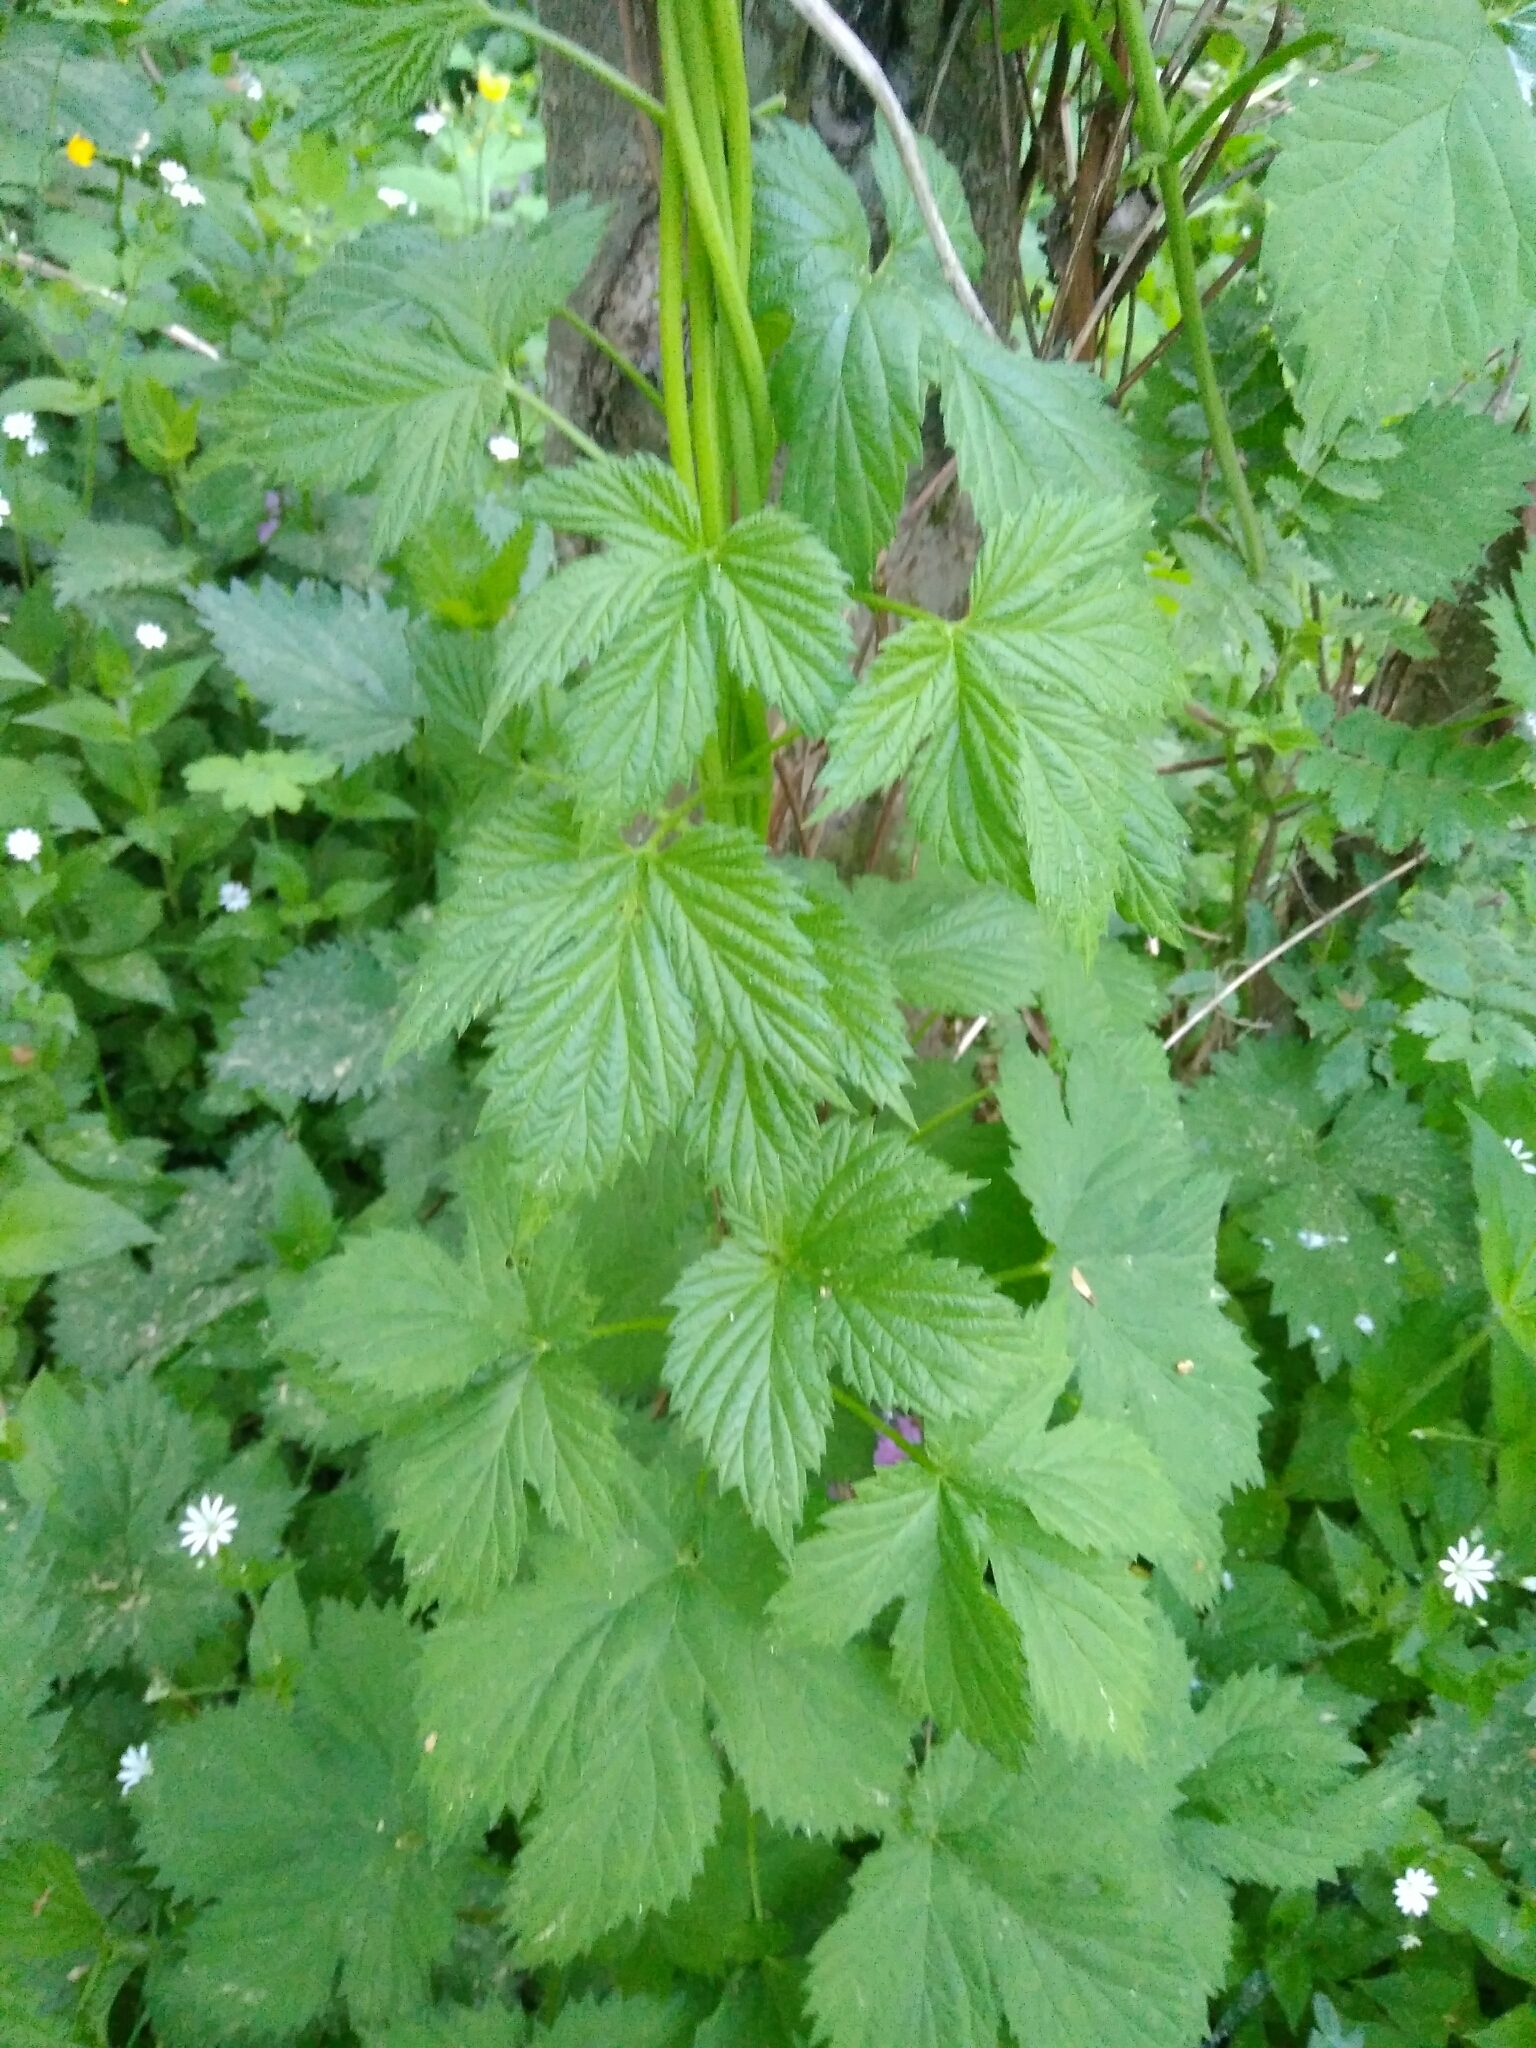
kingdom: Plantae
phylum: Tracheophyta
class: Magnoliopsida
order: Rosales
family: Cannabaceae
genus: Humulus
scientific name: Humulus lupulus
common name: Hop
